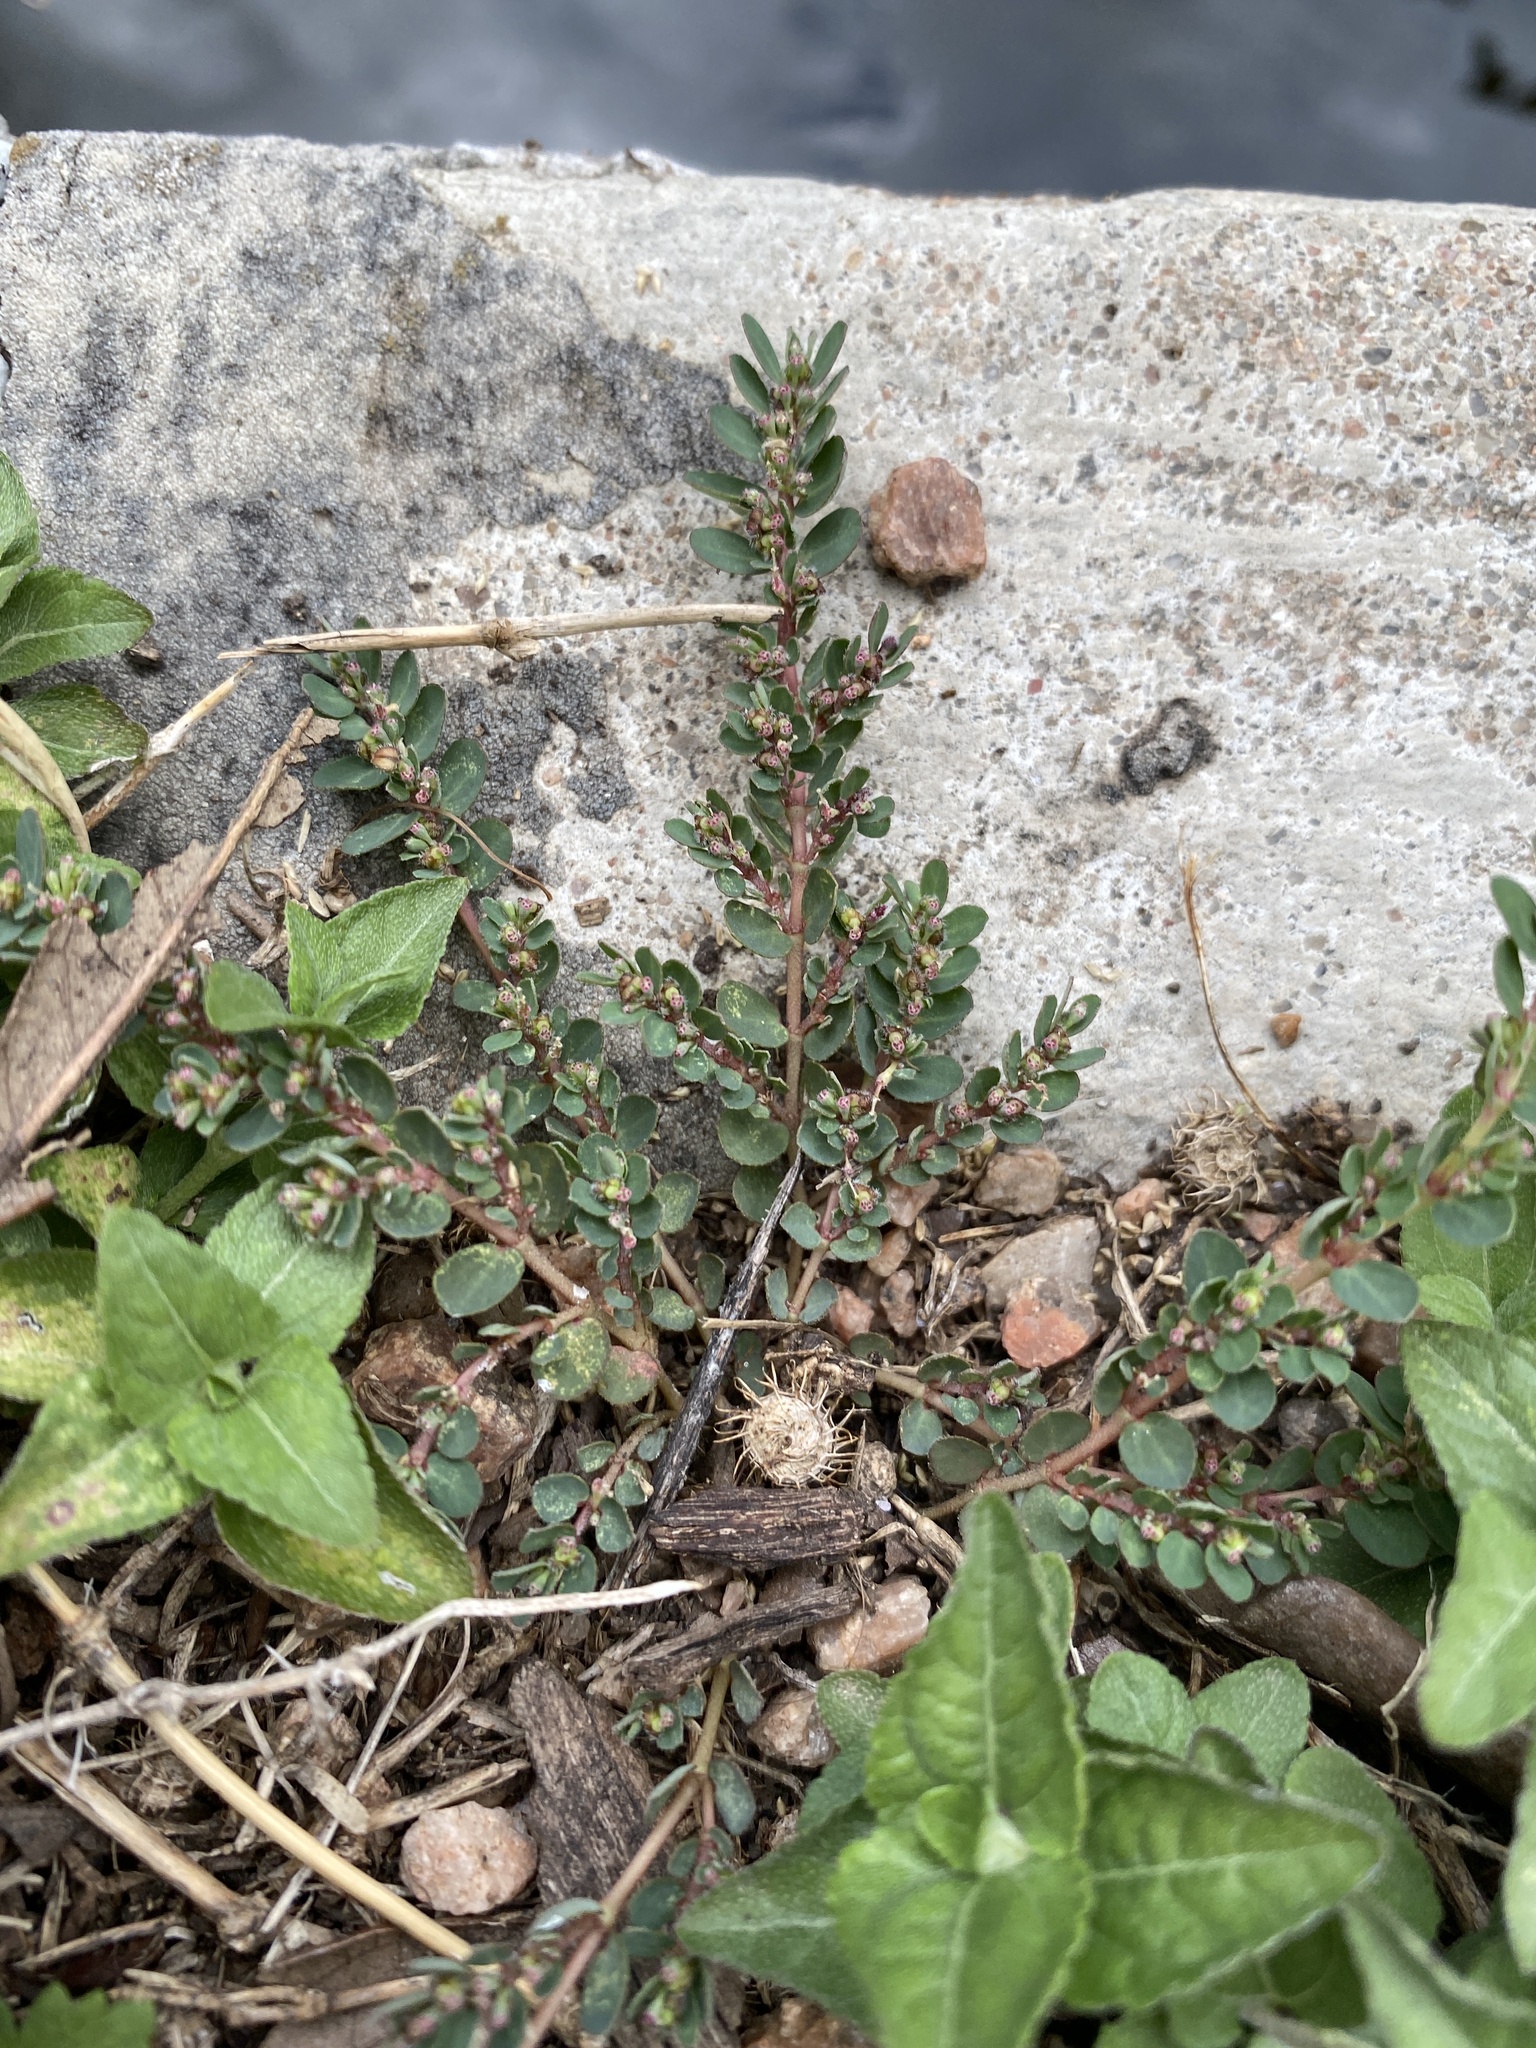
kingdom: Plantae
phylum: Tracheophyta
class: Magnoliopsida
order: Malpighiales
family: Euphorbiaceae
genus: Euphorbia
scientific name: Euphorbia prostrata
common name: Prostrate sandmat
